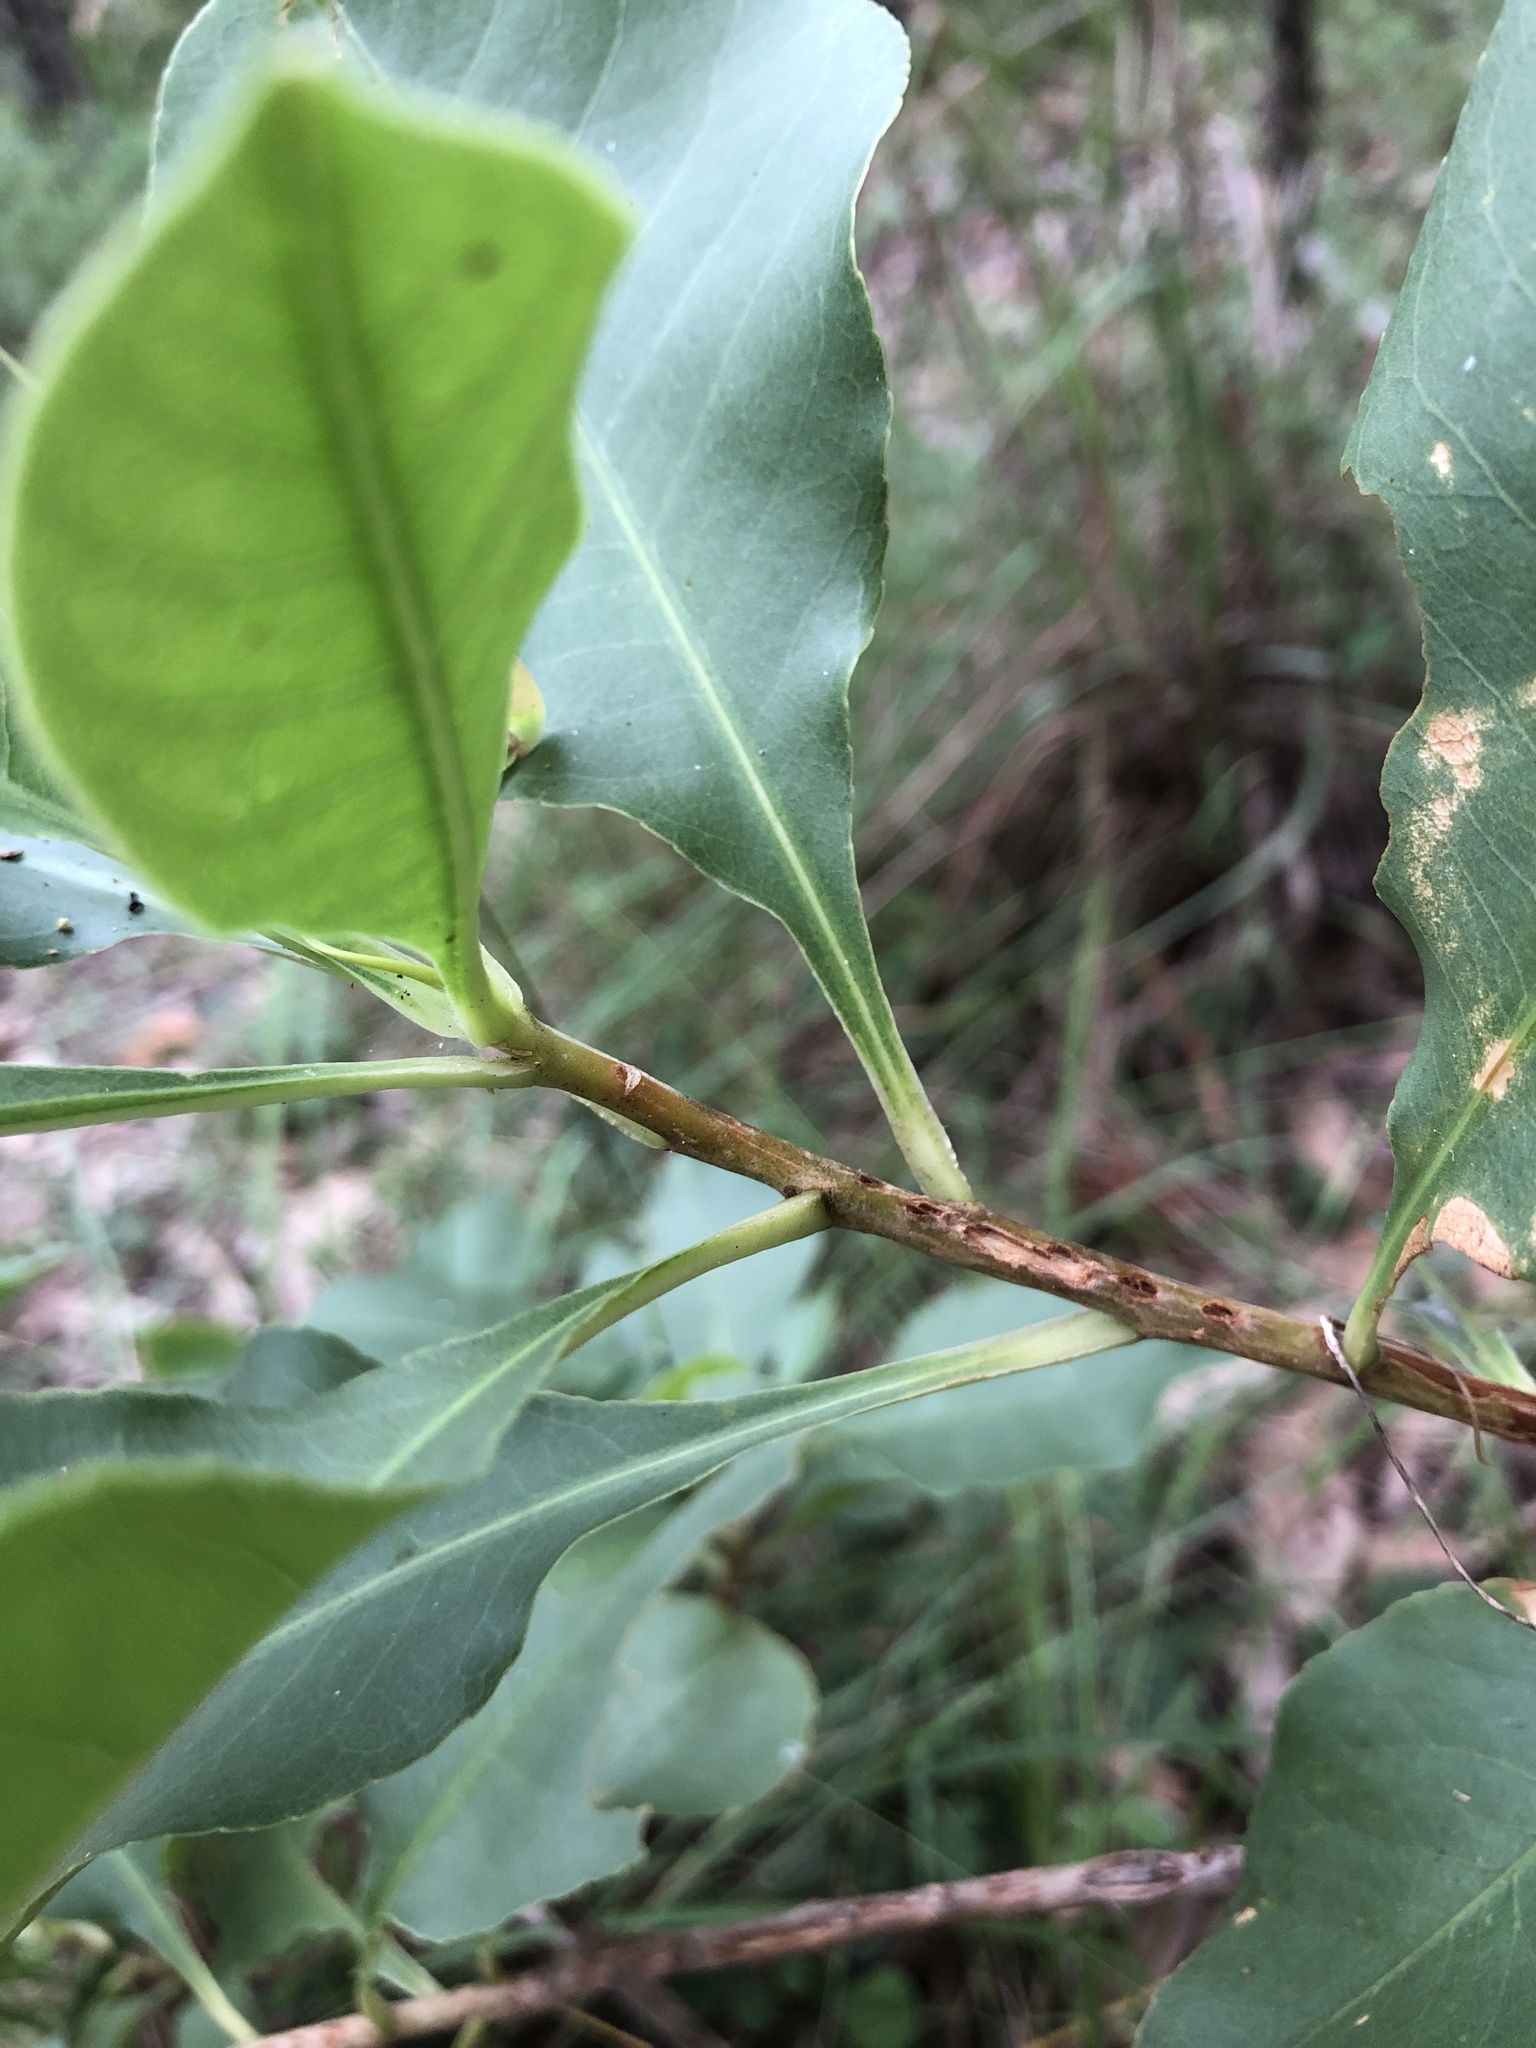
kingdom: Plantae
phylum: Tracheophyta
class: Magnoliopsida
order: Ericales
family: Lecythidaceae
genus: Planchonia
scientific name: Planchonia careya
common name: Cockatoo-apple
